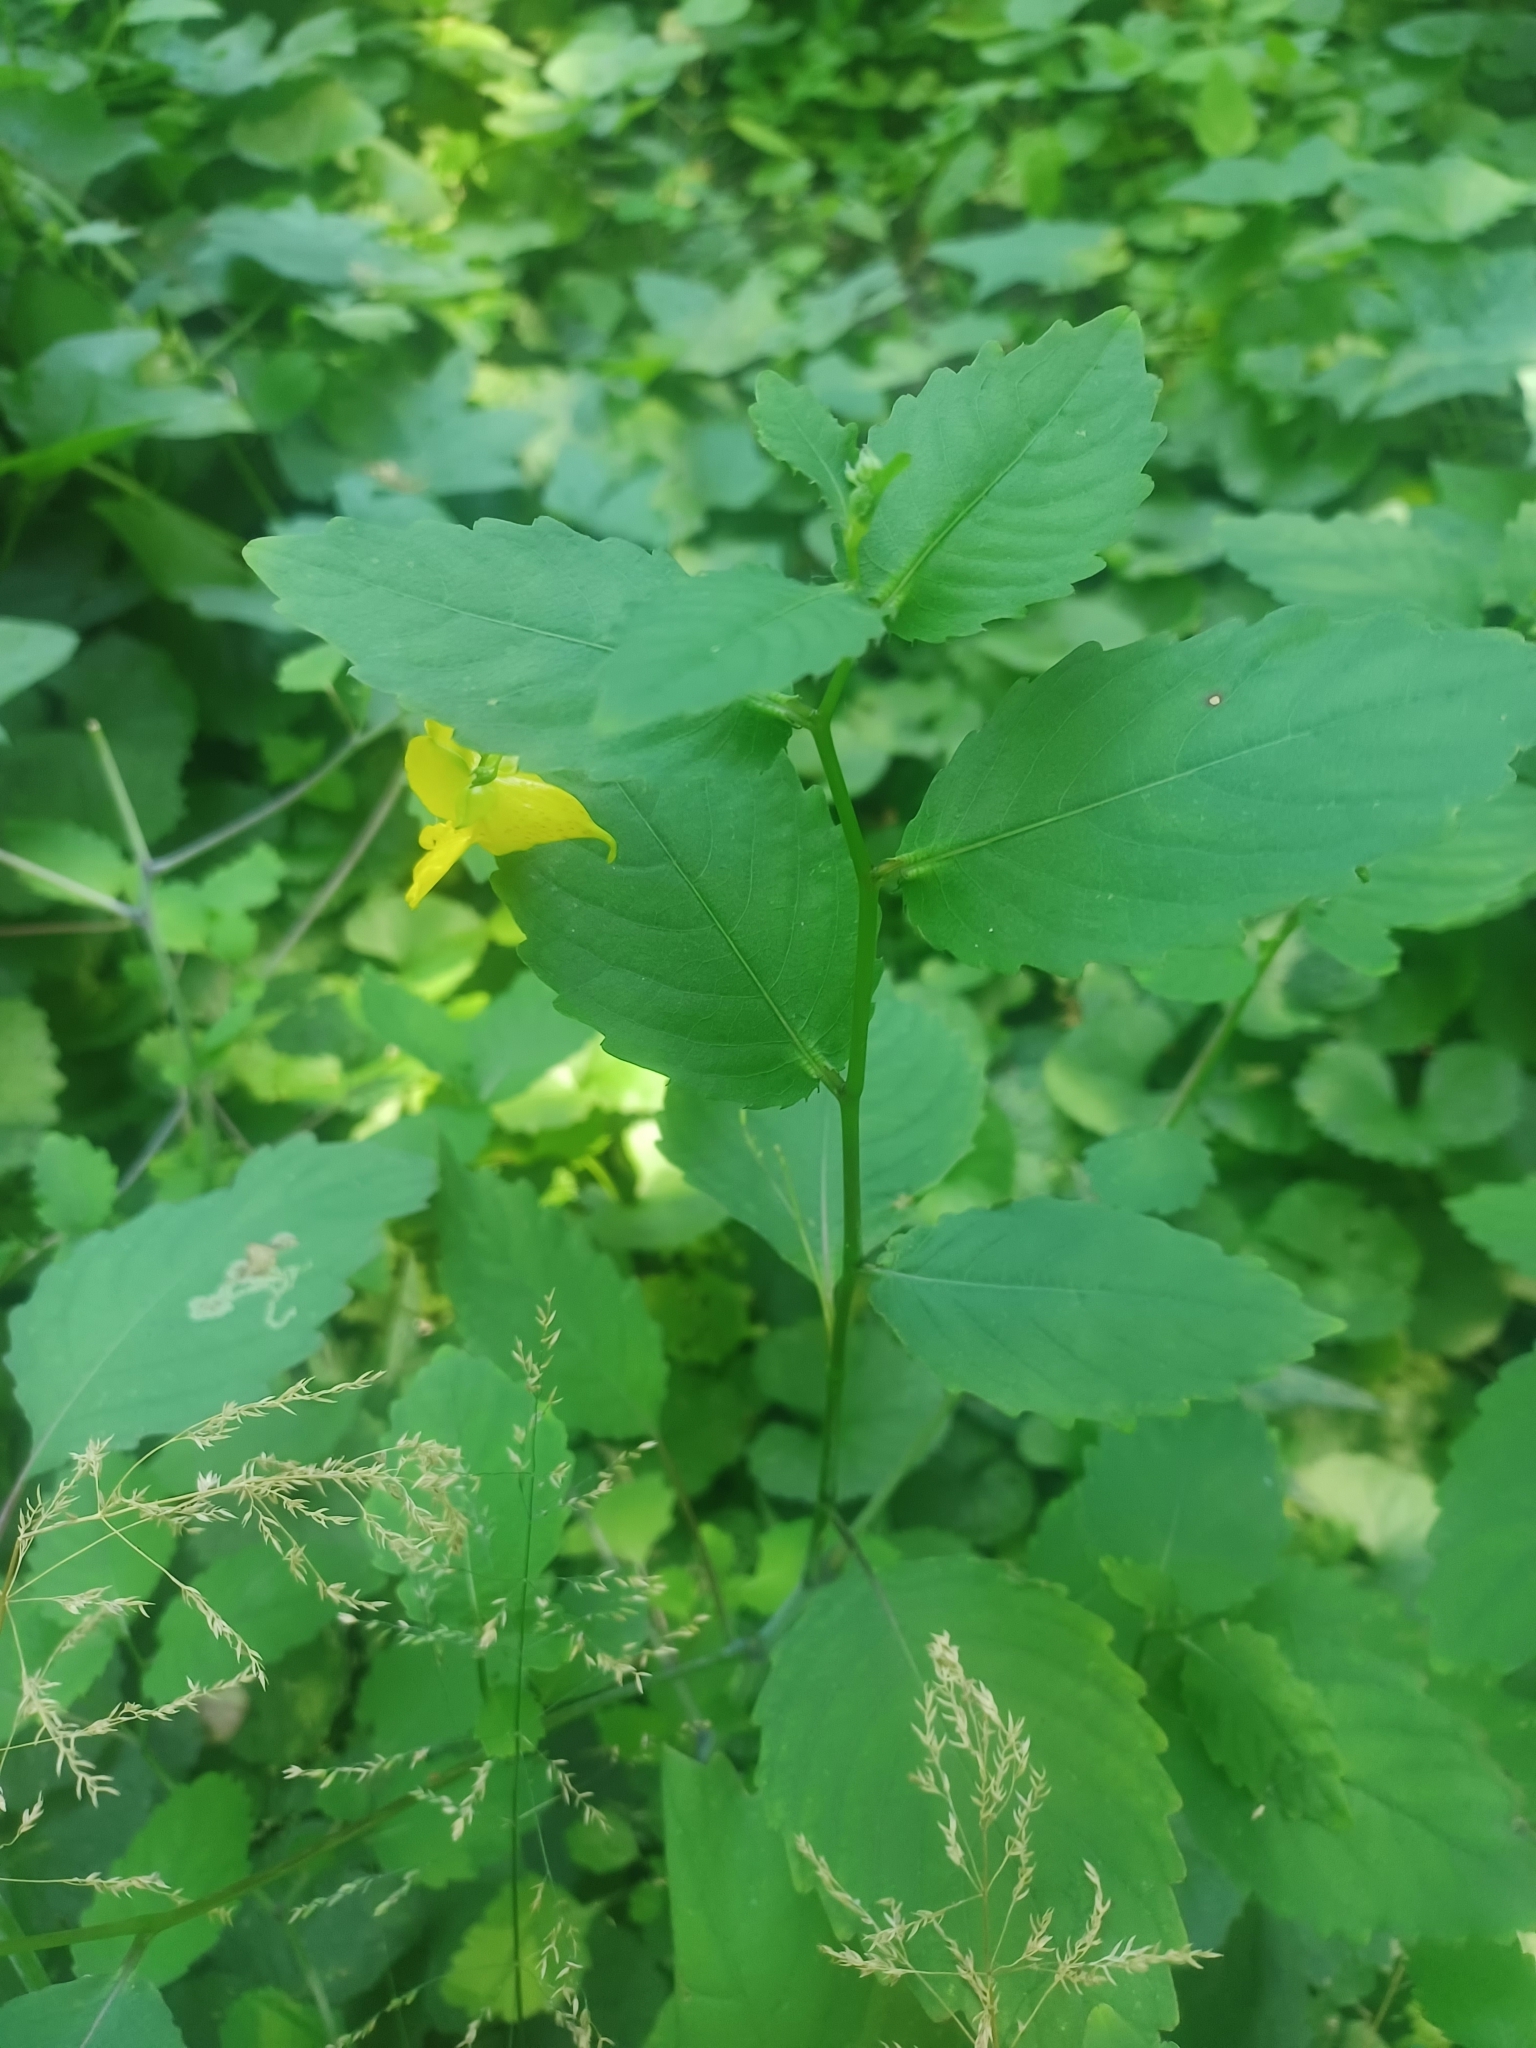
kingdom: Plantae
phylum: Tracheophyta
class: Magnoliopsida
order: Ericales
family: Balsaminaceae
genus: Impatiens
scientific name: Impatiens pallida
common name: Pale snapweed
